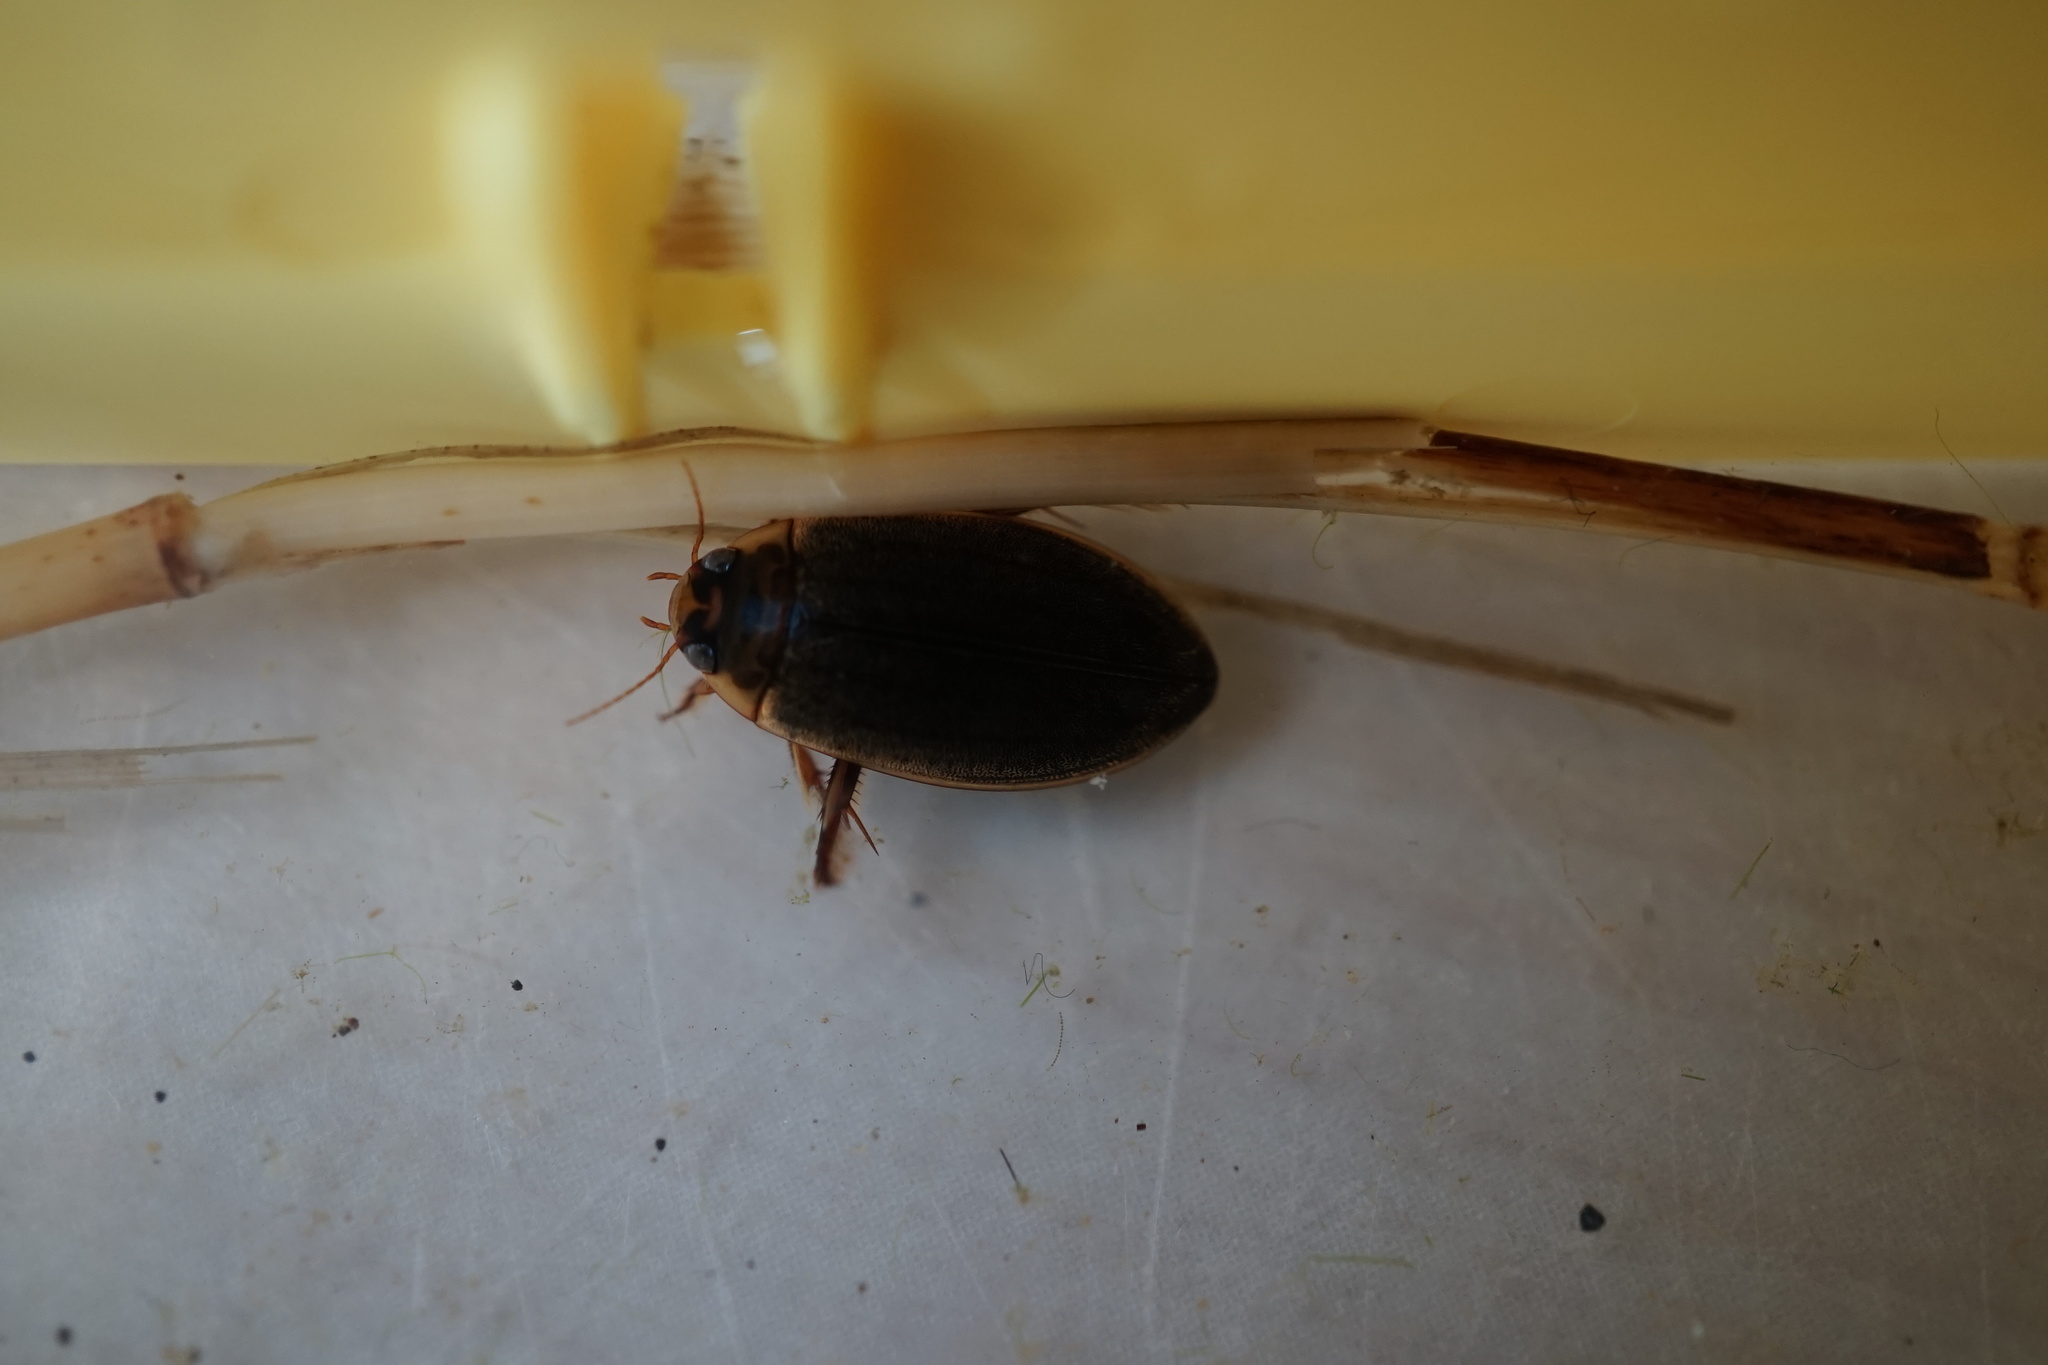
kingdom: Animalia
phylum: Arthropoda
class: Insecta
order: Coleoptera
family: Dytiscidae
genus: Rhantus
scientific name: Rhantus suturalis
